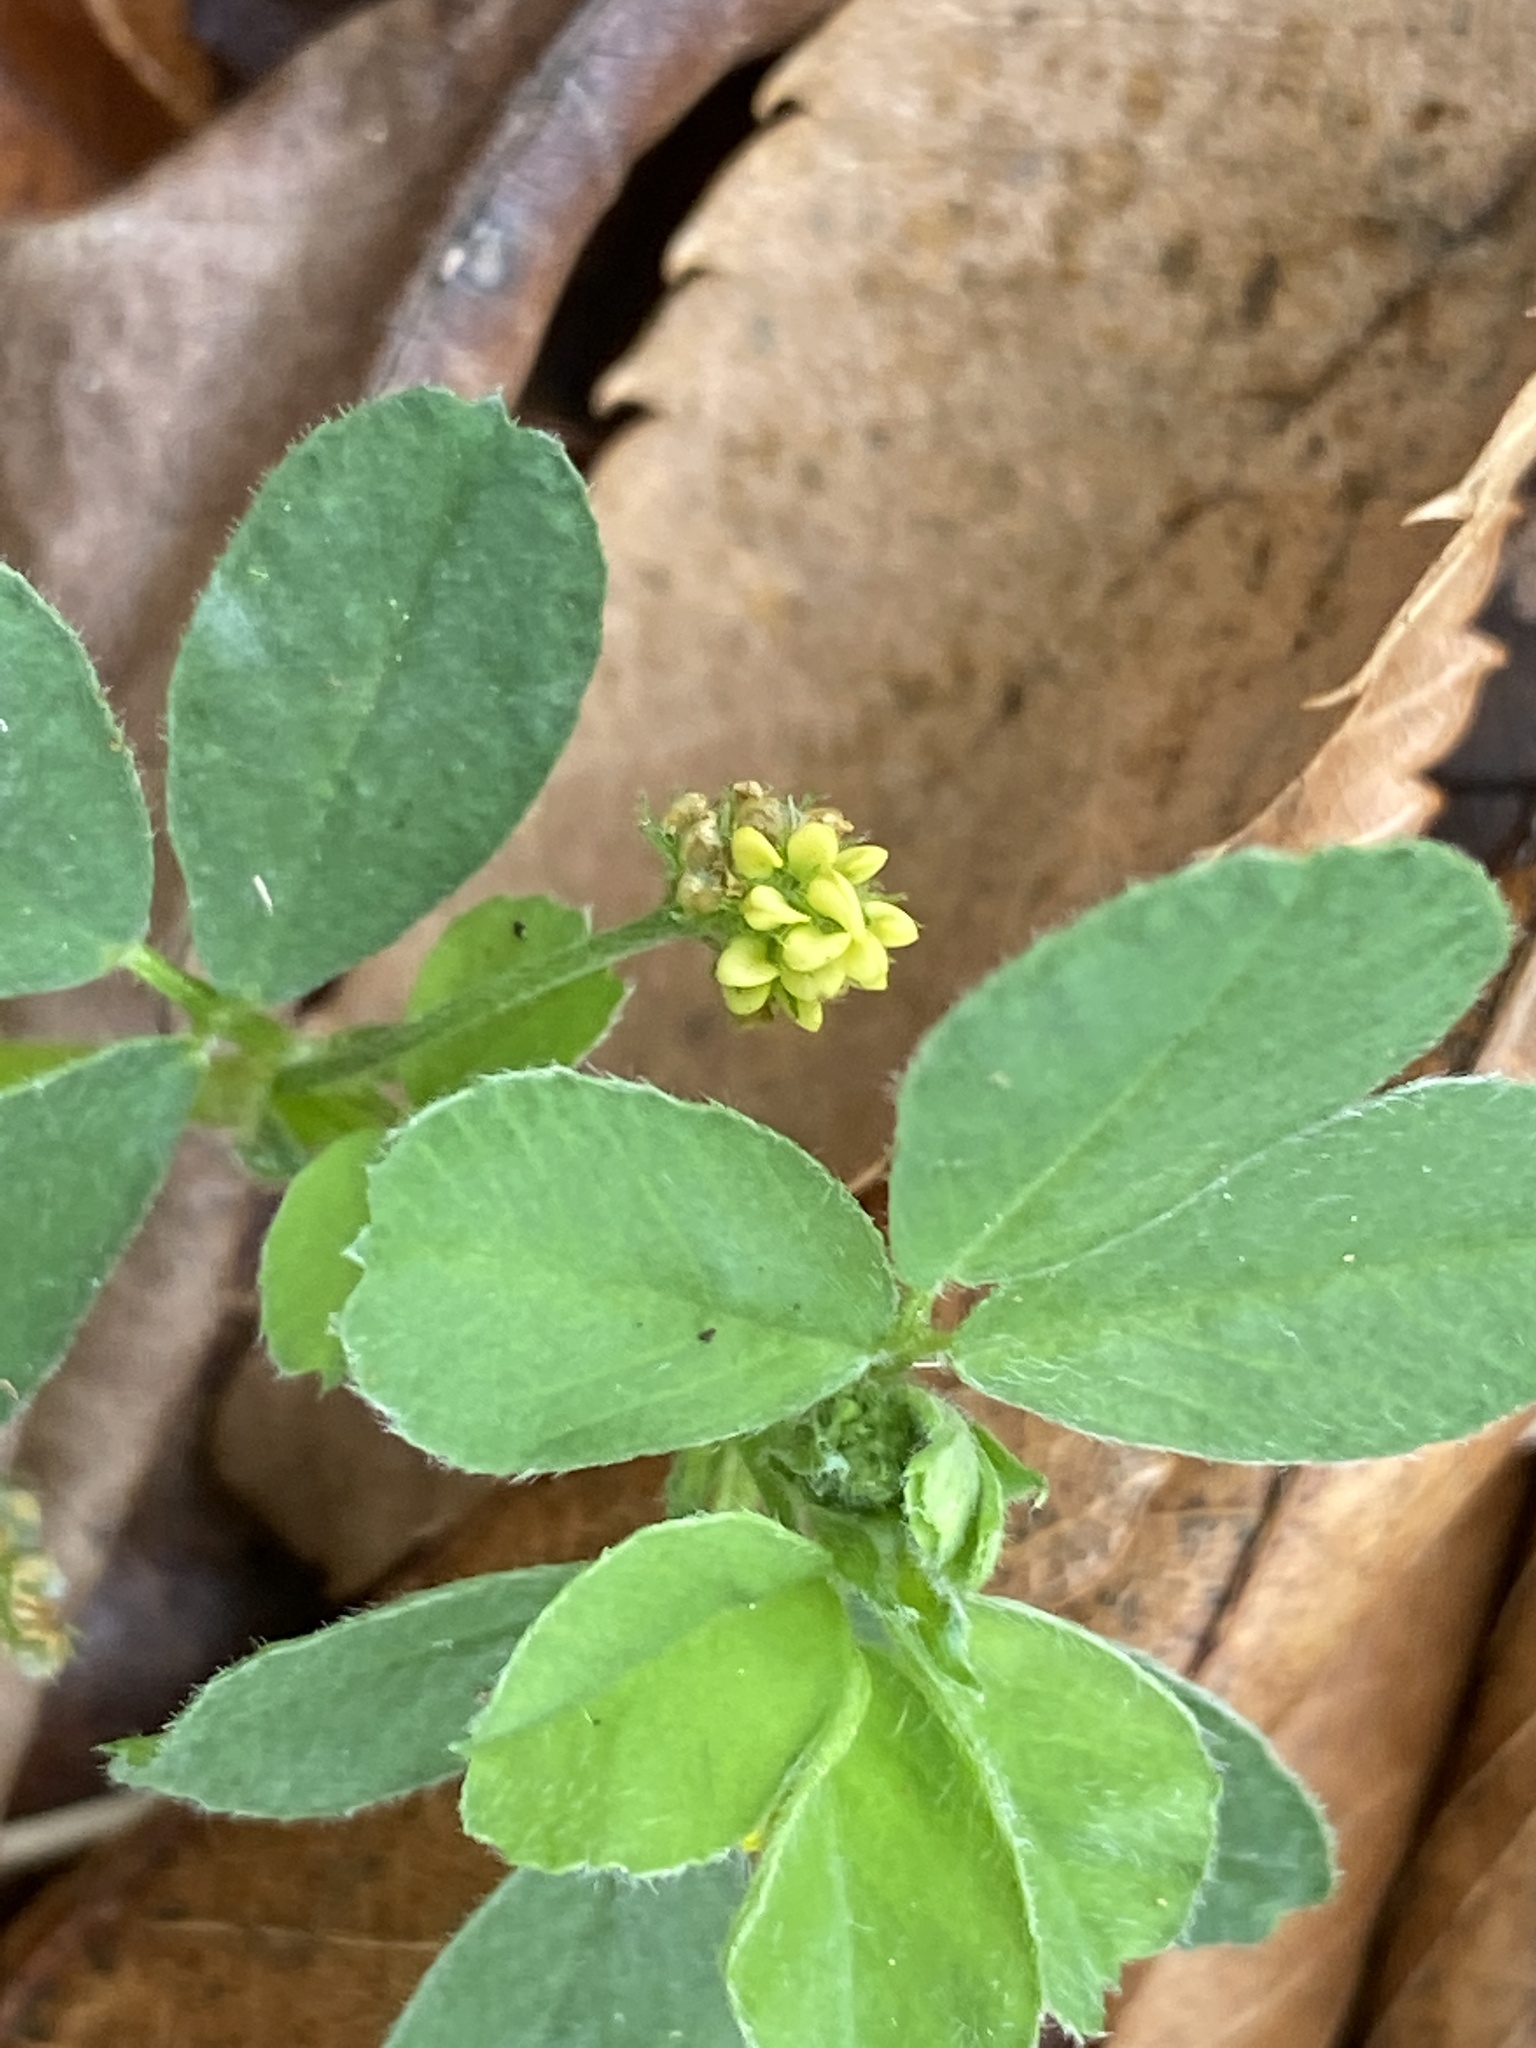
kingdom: Plantae
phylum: Tracheophyta
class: Magnoliopsida
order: Fabales
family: Fabaceae
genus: Medicago
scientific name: Medicago lupulina
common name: Black medick
